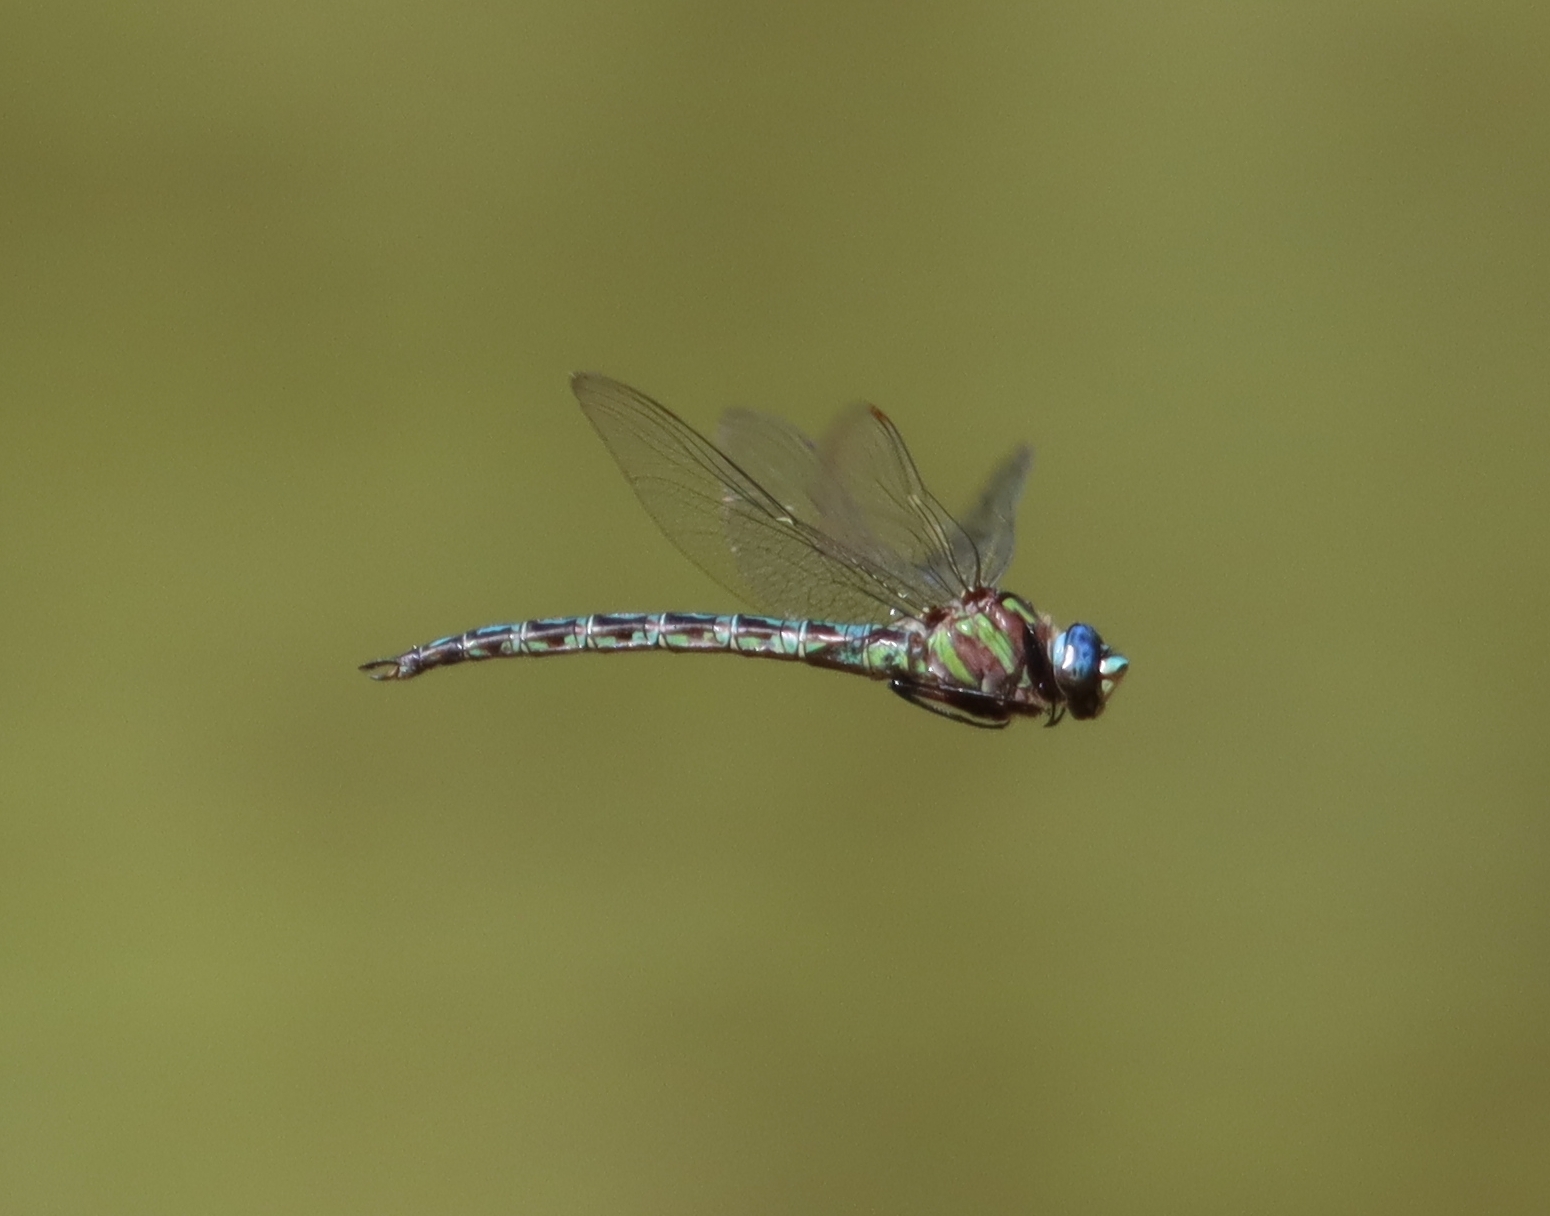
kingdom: Animalia
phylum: Arthropoda
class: Insecta
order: Odonata
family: Aeshnidae
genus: Nasiaeschna
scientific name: Nasiaeschna pentacantha
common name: Cyrano darner
